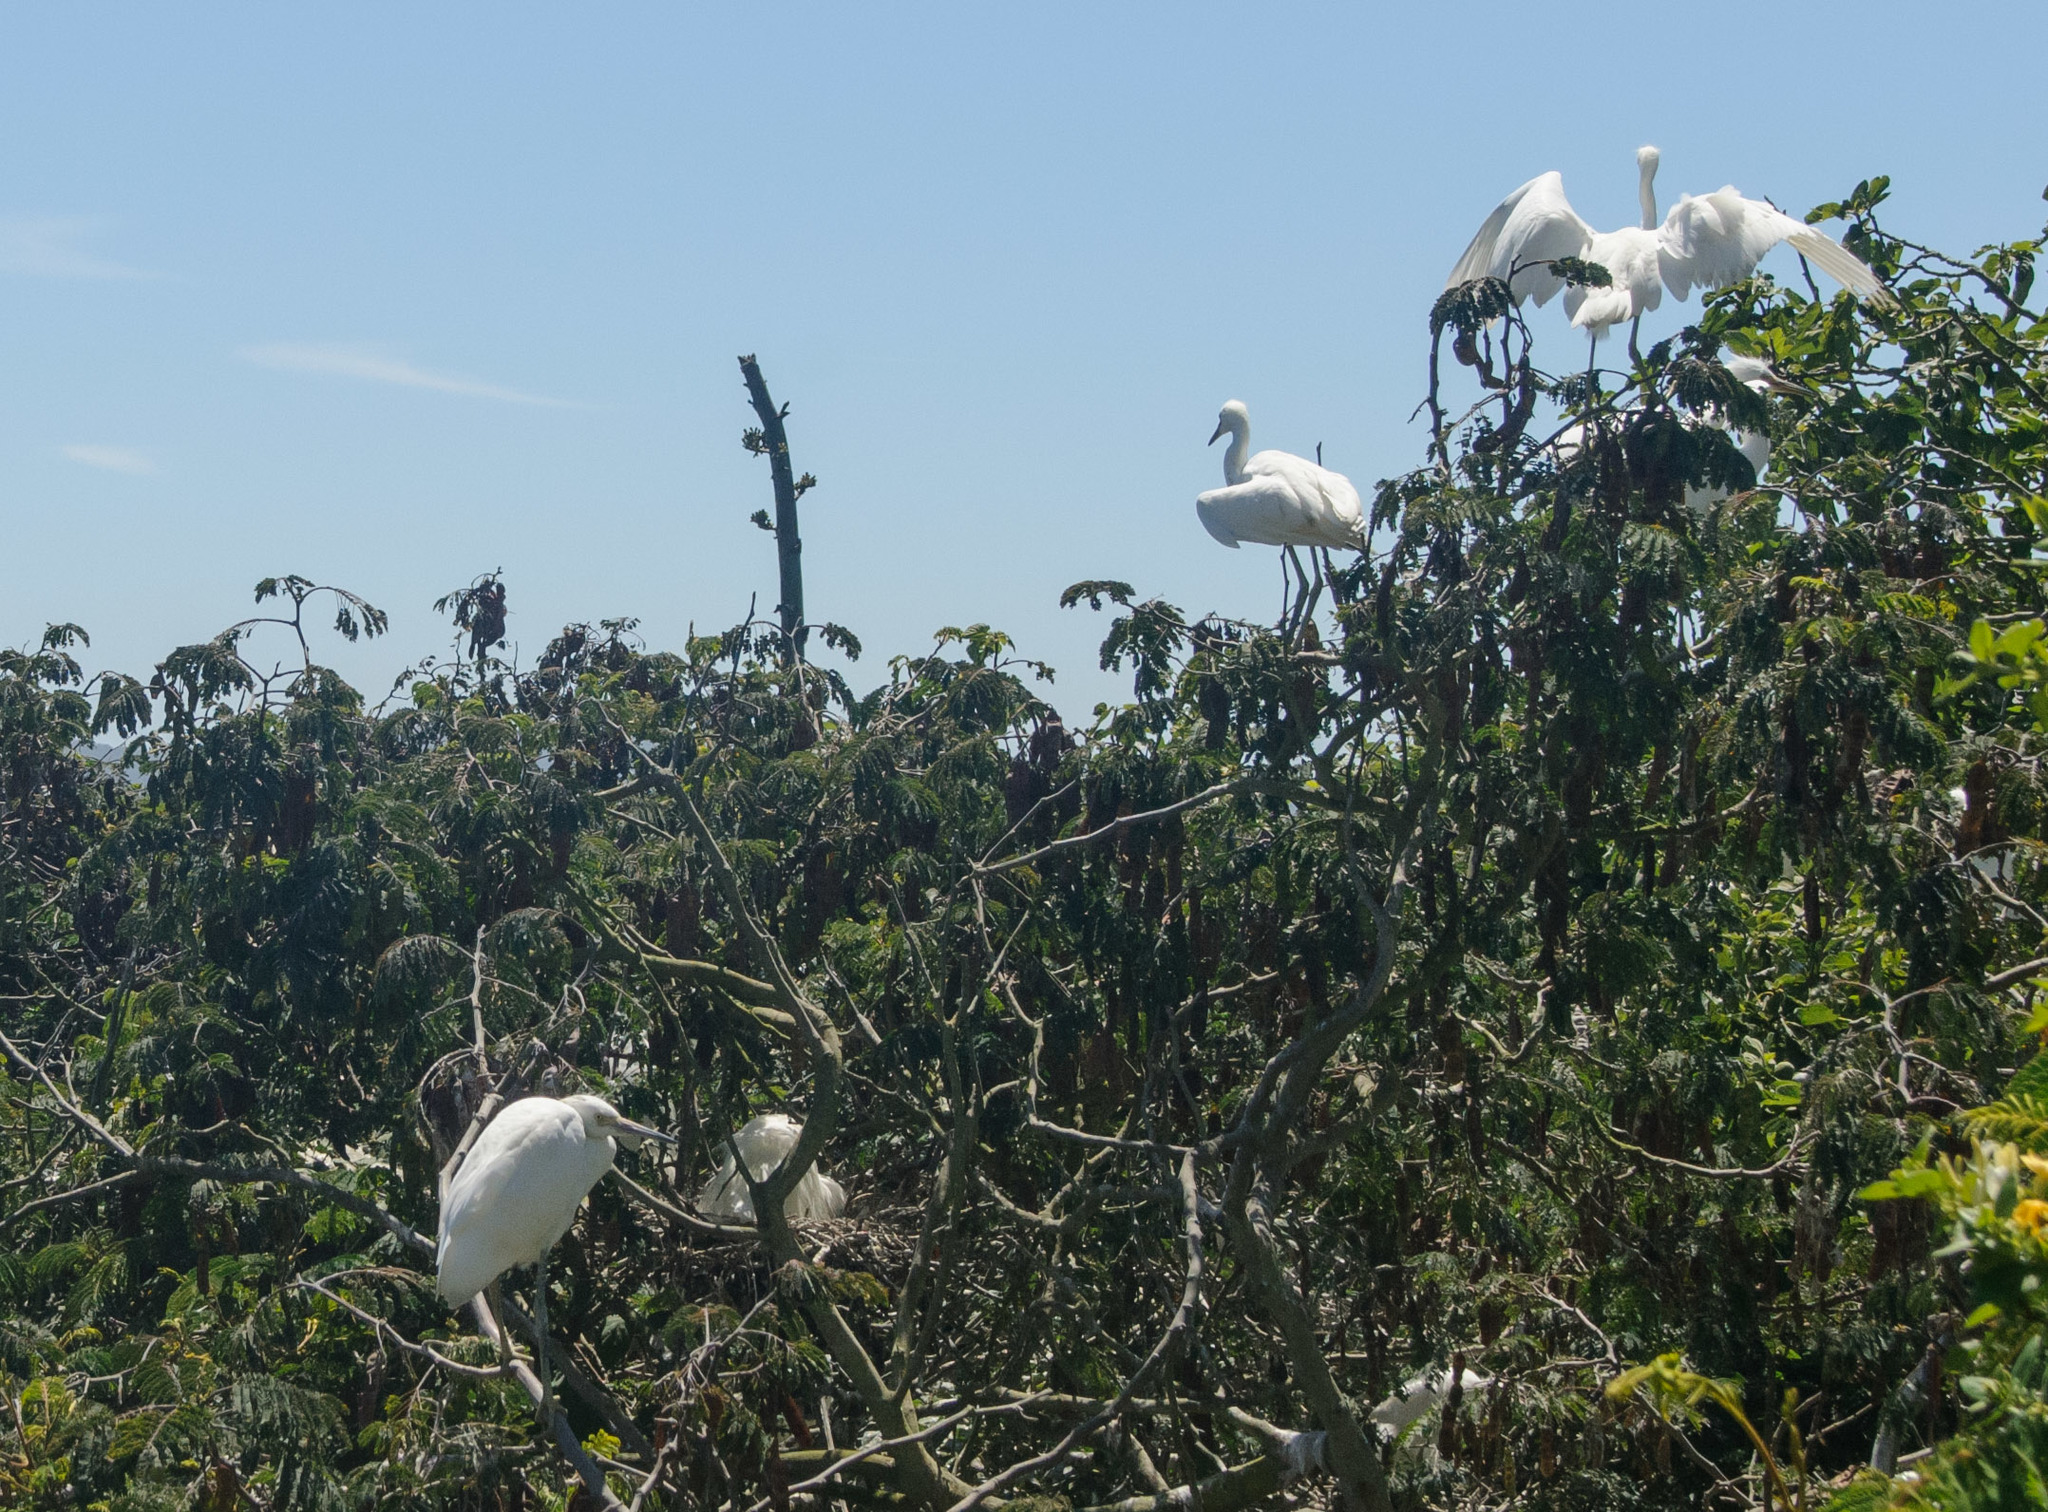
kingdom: Animalia
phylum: Chordata
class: Aves
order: Pelecaniformes
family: Ardeidae
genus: Ardea
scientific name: Ardea alba
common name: Great egret
